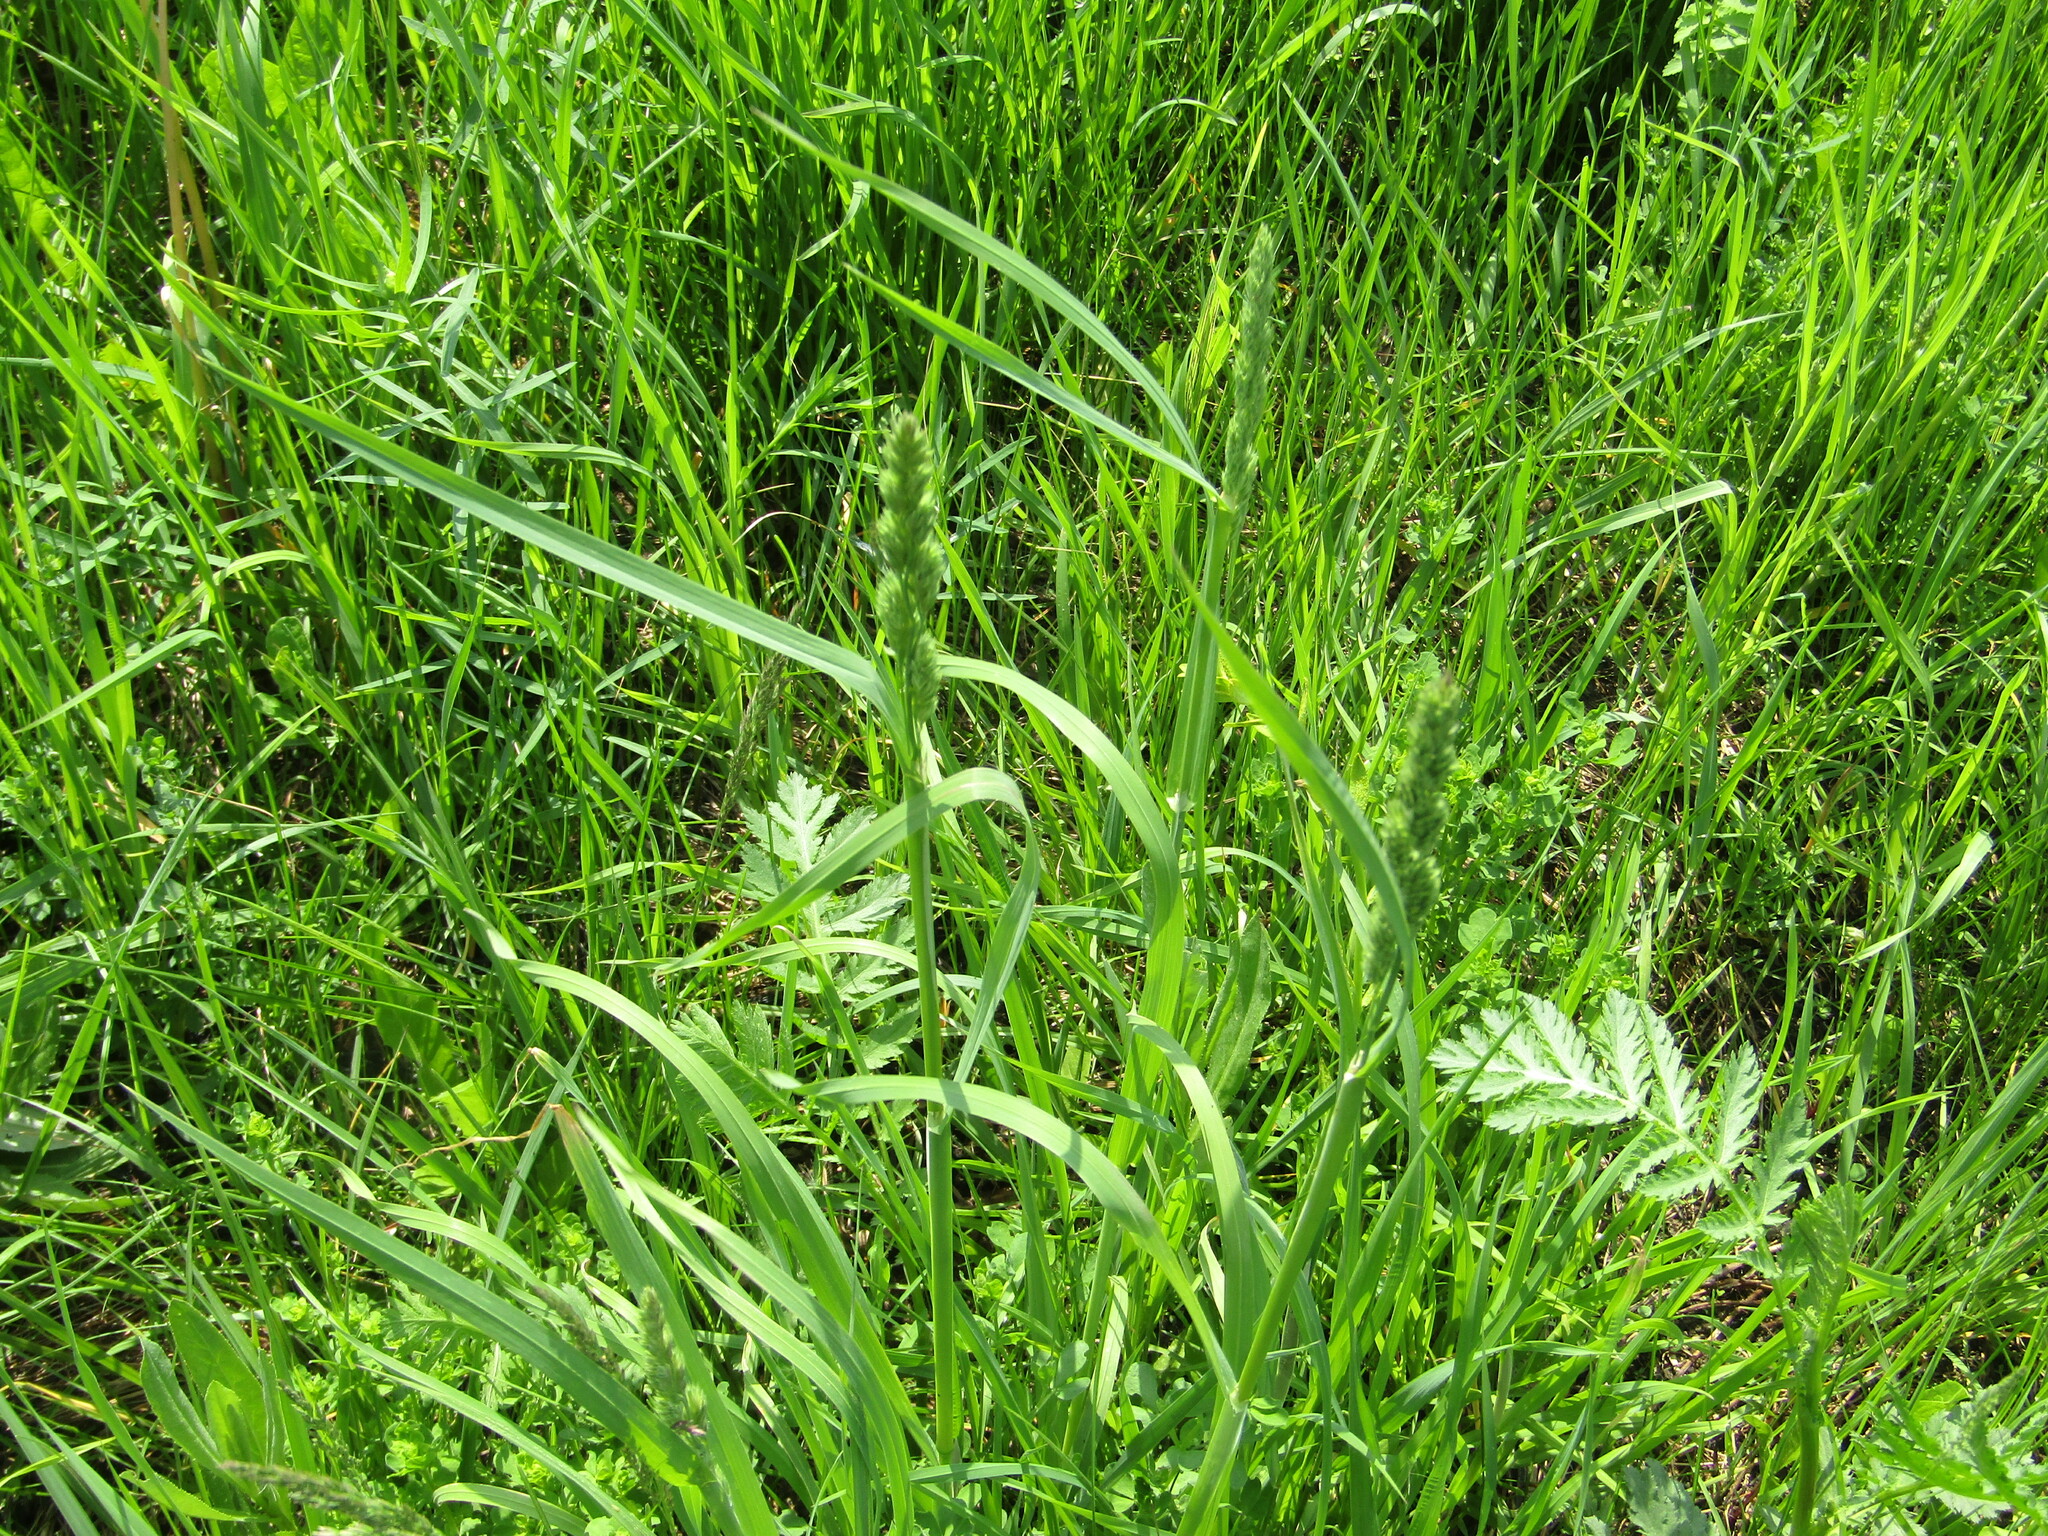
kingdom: Plantae
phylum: Tracheophyta
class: Liliopsida
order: Poales
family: Poaceae
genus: Dactylis
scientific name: Dactylis glomerata
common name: Orchardgrass
